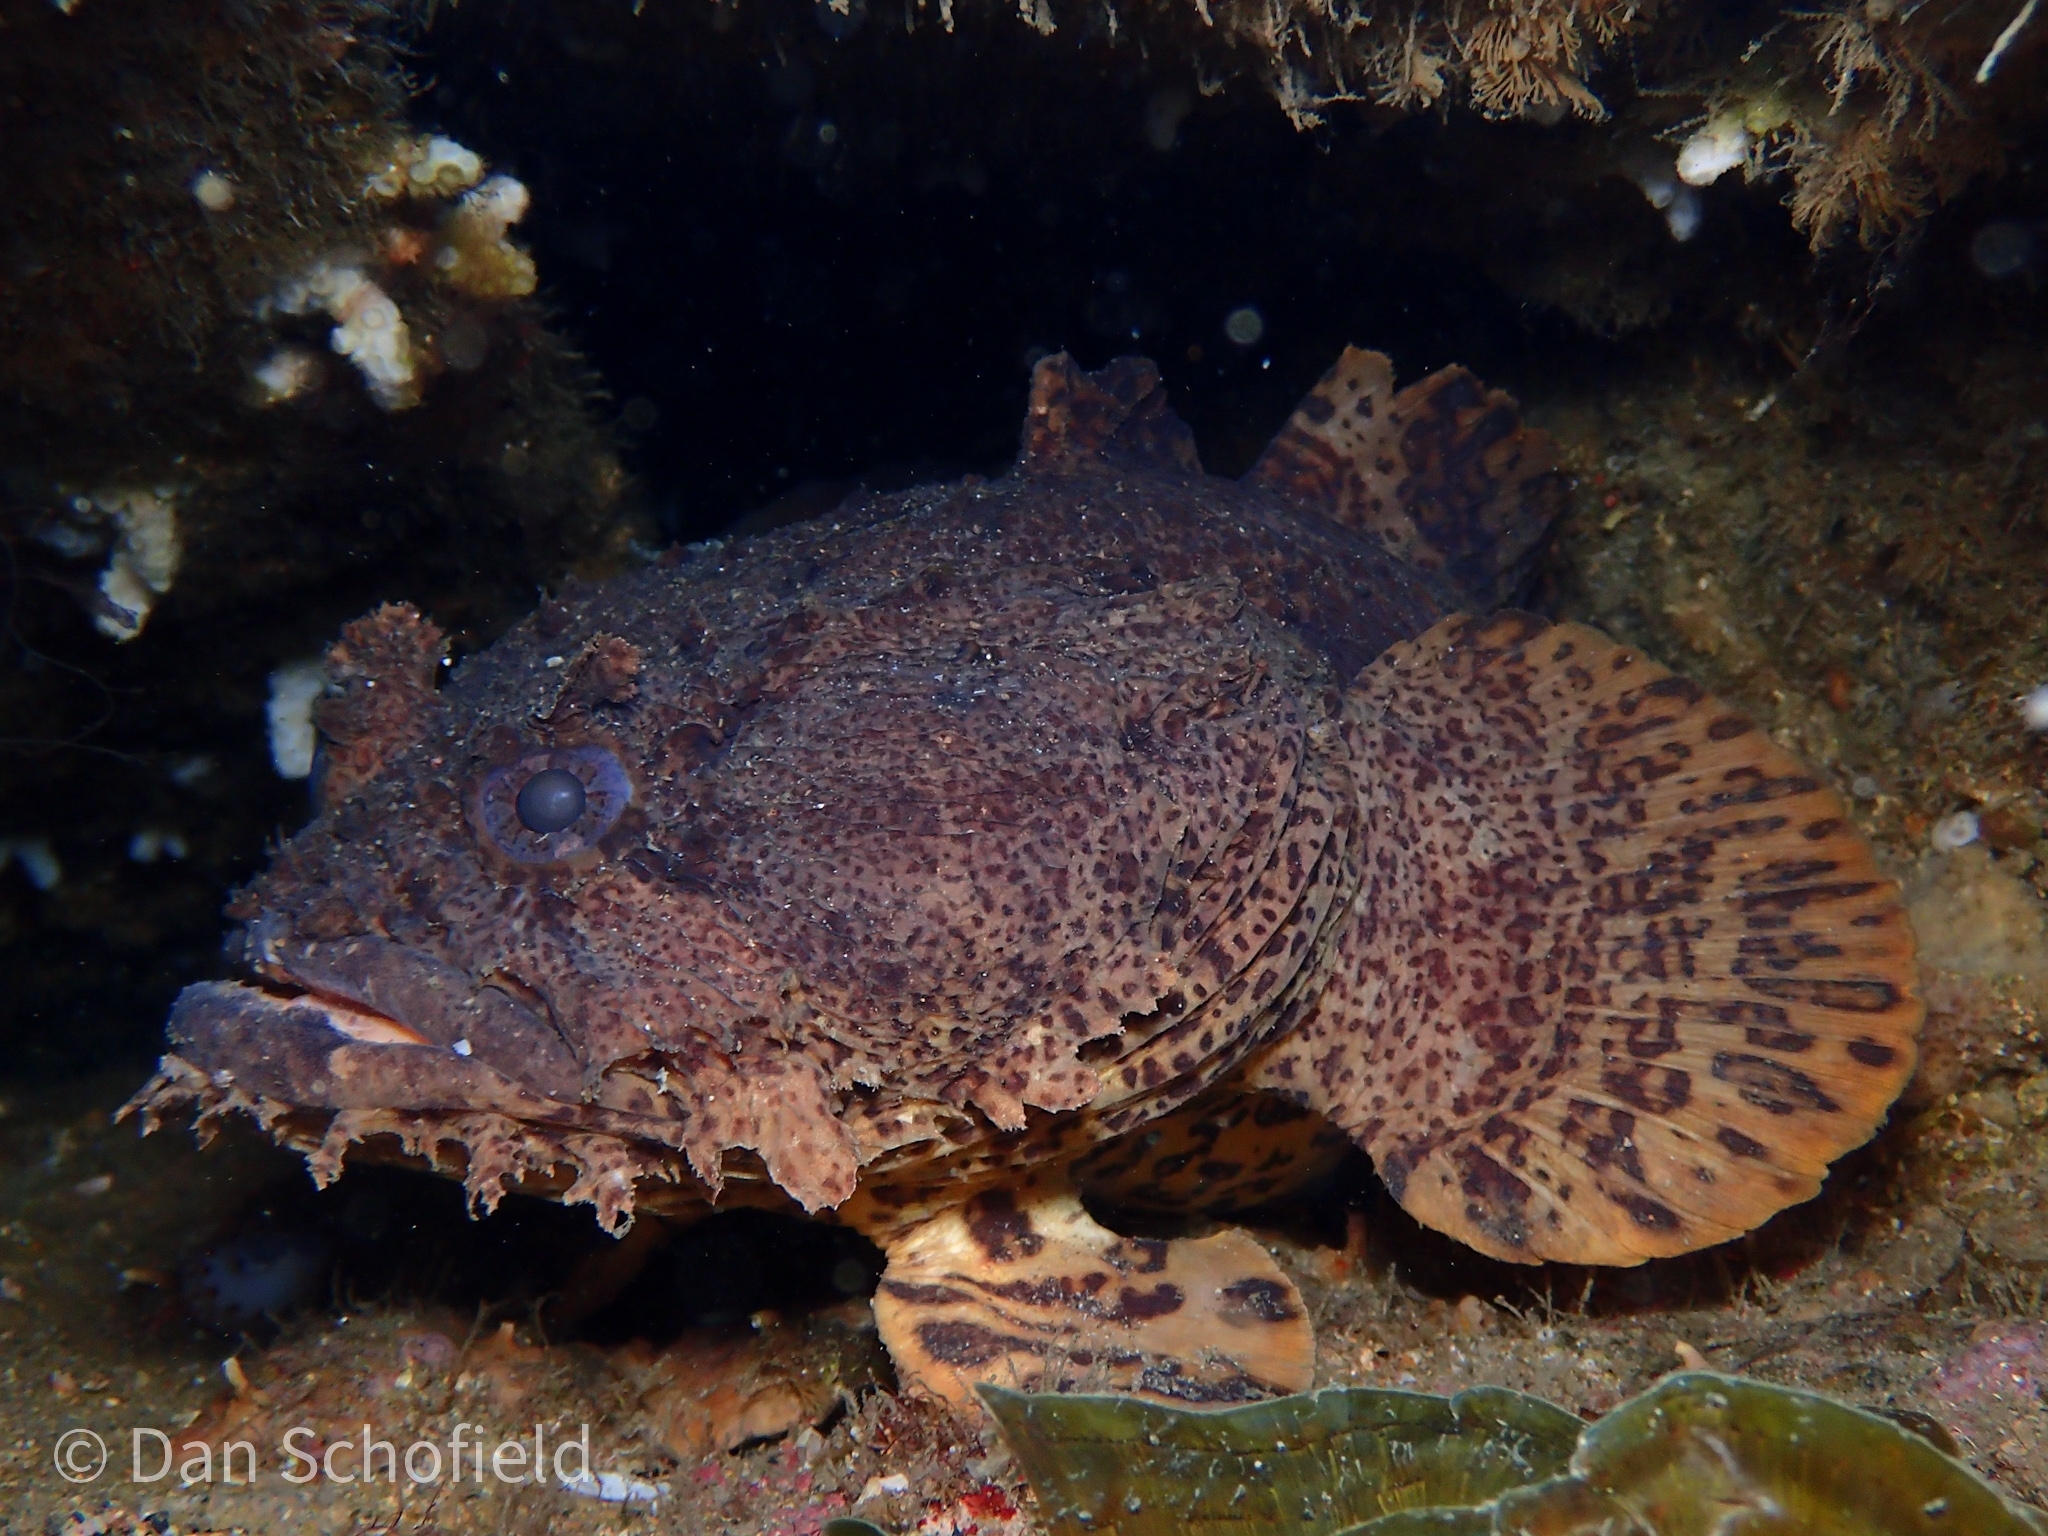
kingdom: Animalia
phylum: Chordata
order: Batrachoidiformes
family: Batrachoididae
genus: Opsanus
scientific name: Opsanus tau
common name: Oyster toadfish
